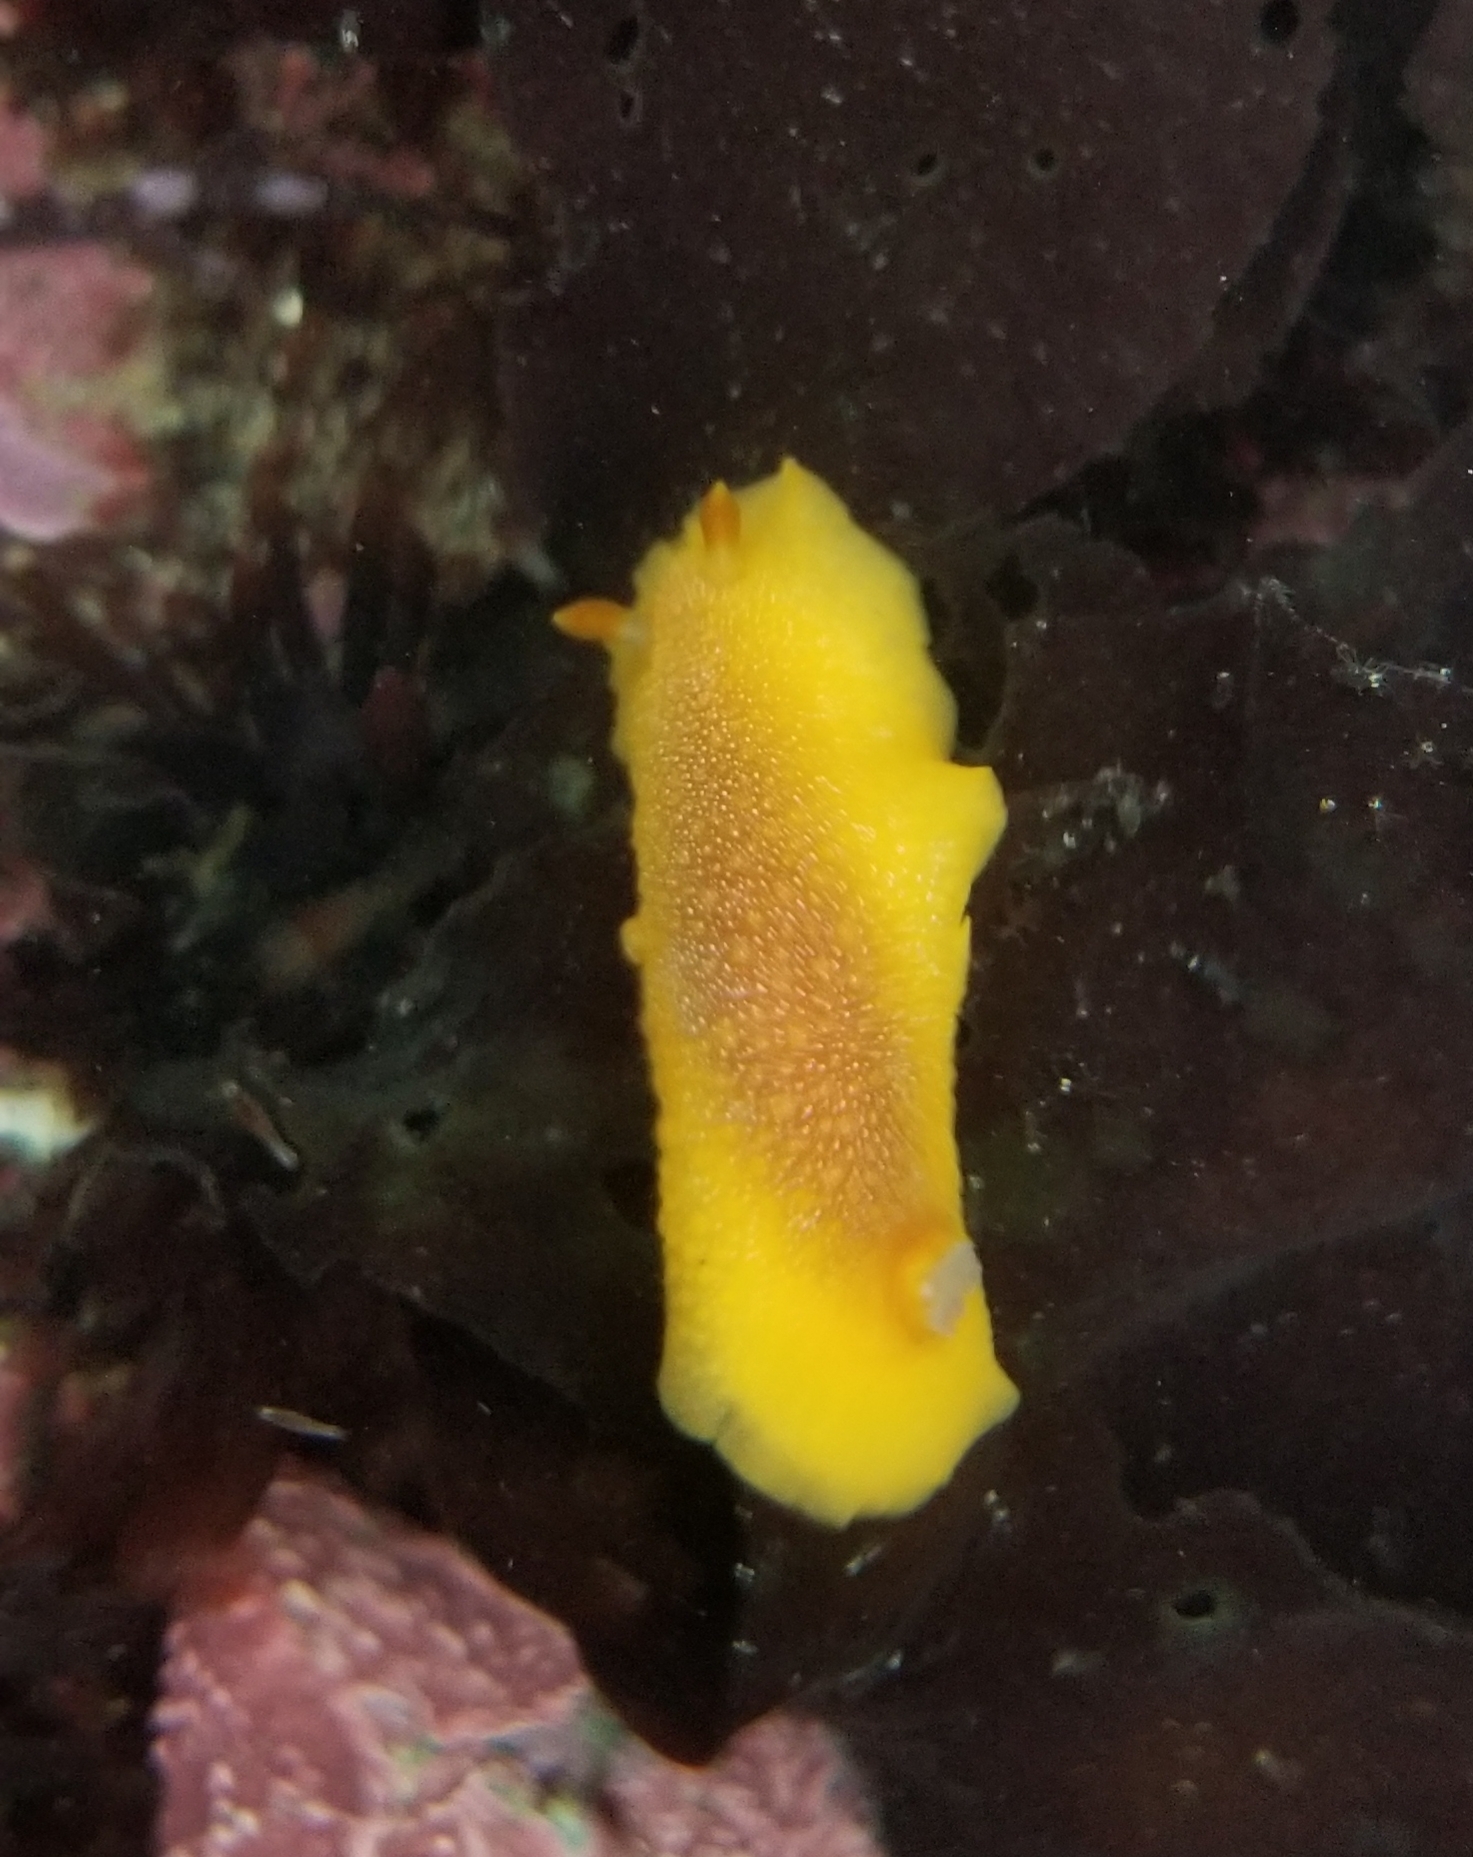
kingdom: Animalia
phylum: Mollusca
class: Gastropoda
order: Nudibranchia
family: Dendrodorididae
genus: Doriopsilla
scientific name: Doriopsilla albopunctata
